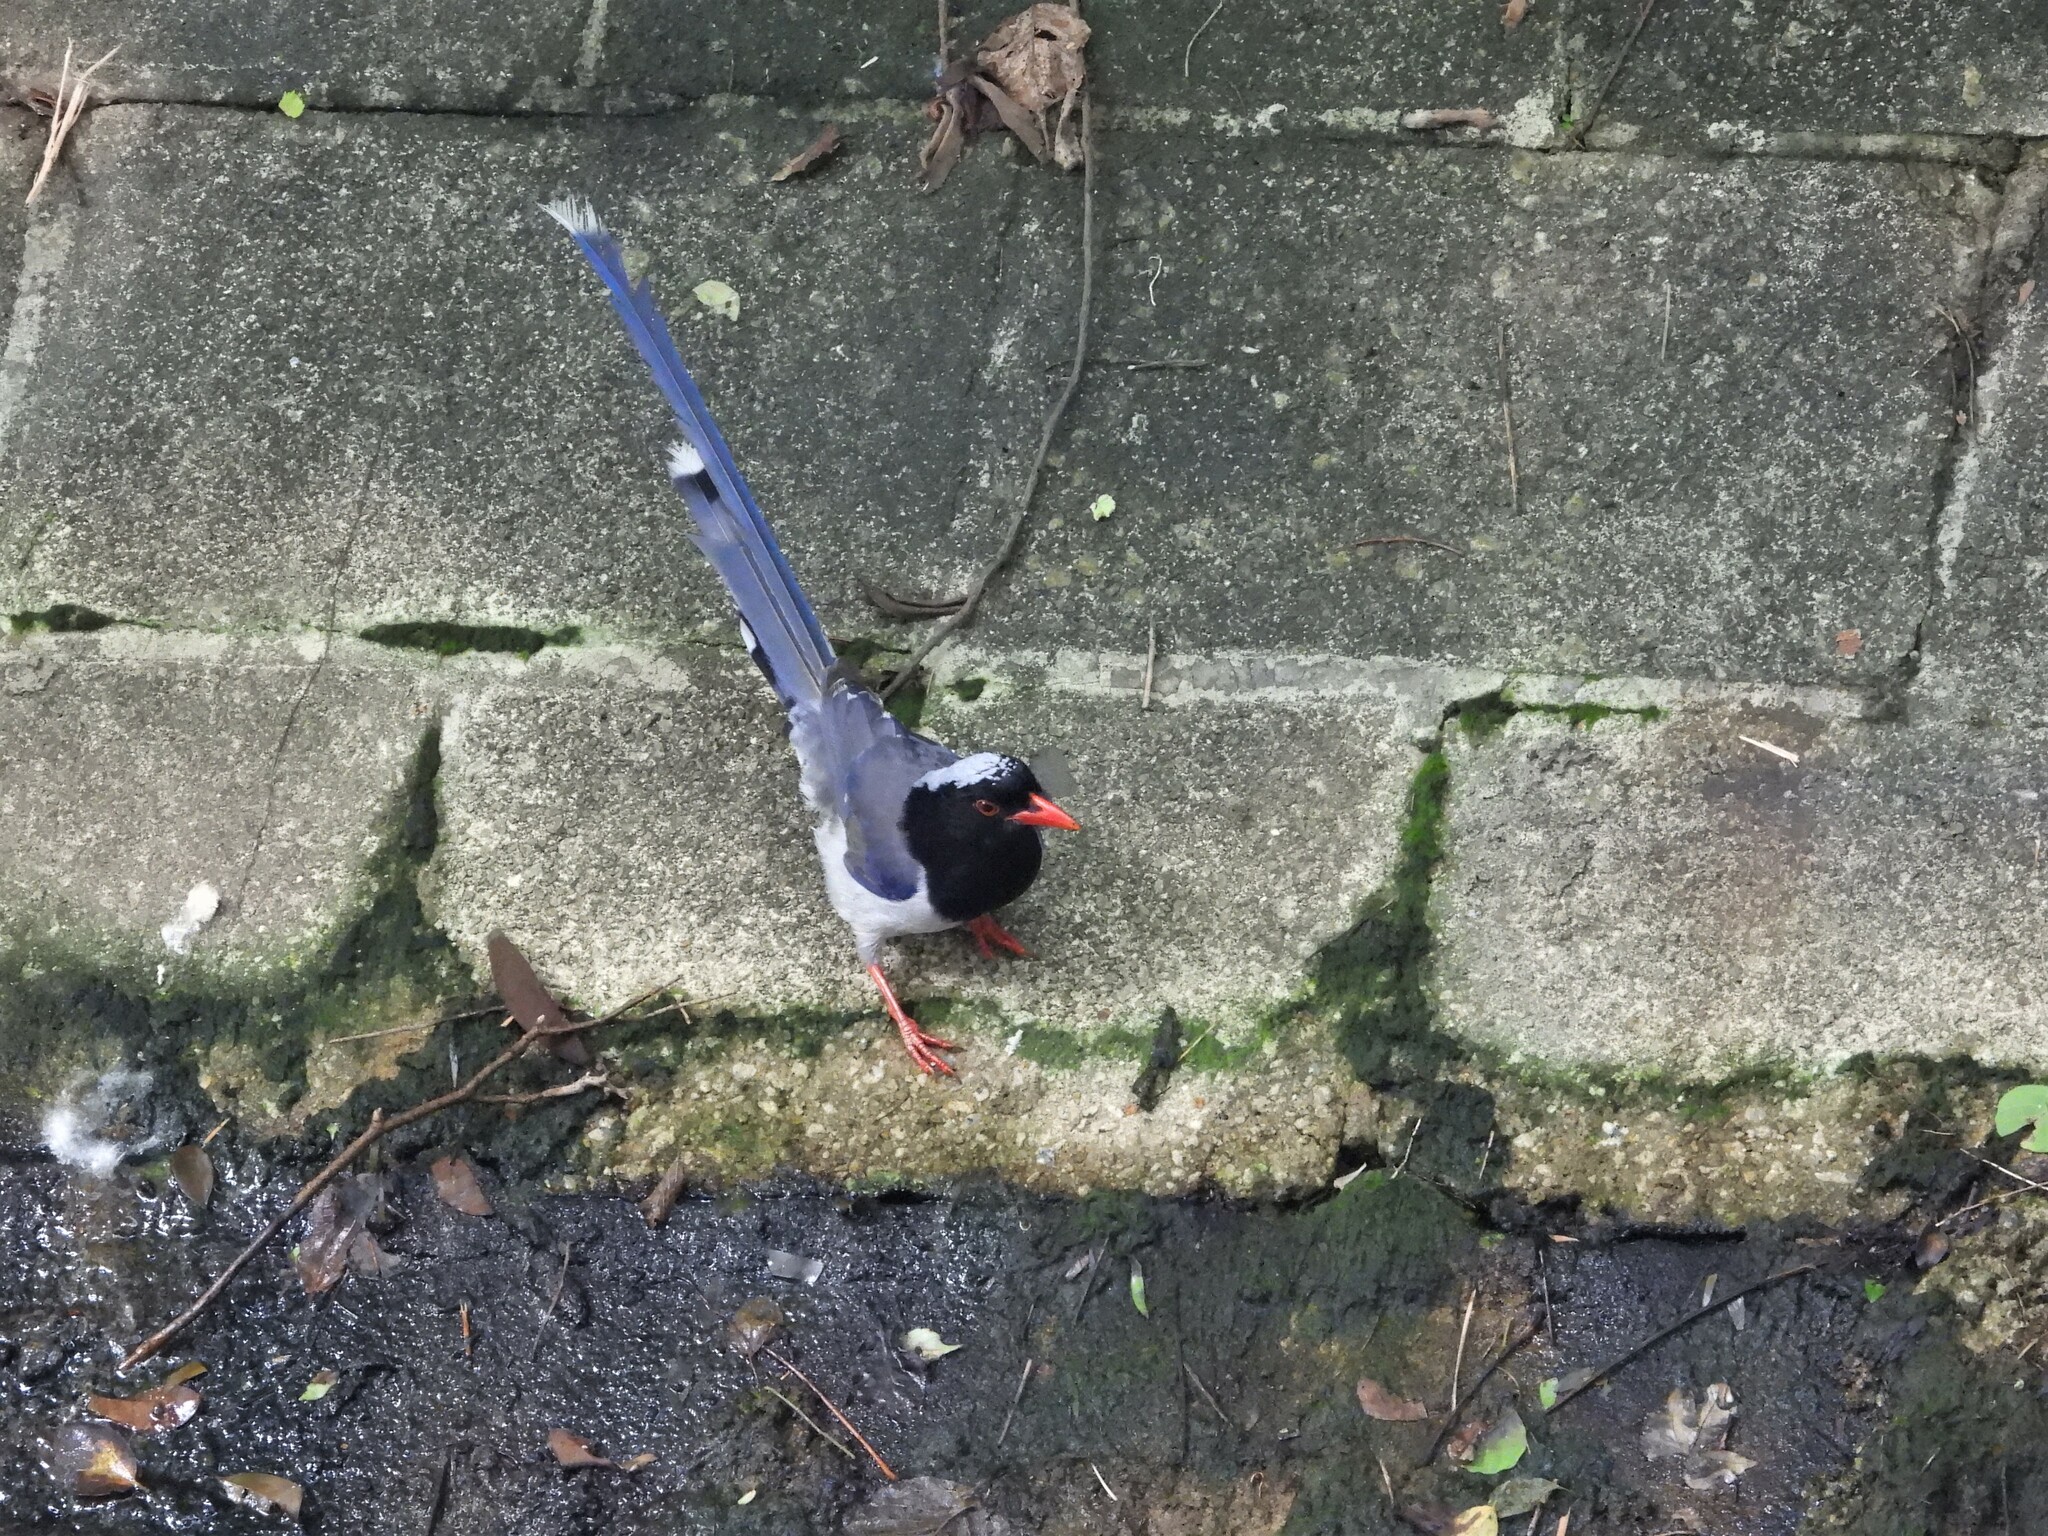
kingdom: Animalia
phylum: Chordata
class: Aves
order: Passeriformes
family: Corvidae
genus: Urocissa
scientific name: Urocissa erythroryncha
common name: Red-billed blue magpie
